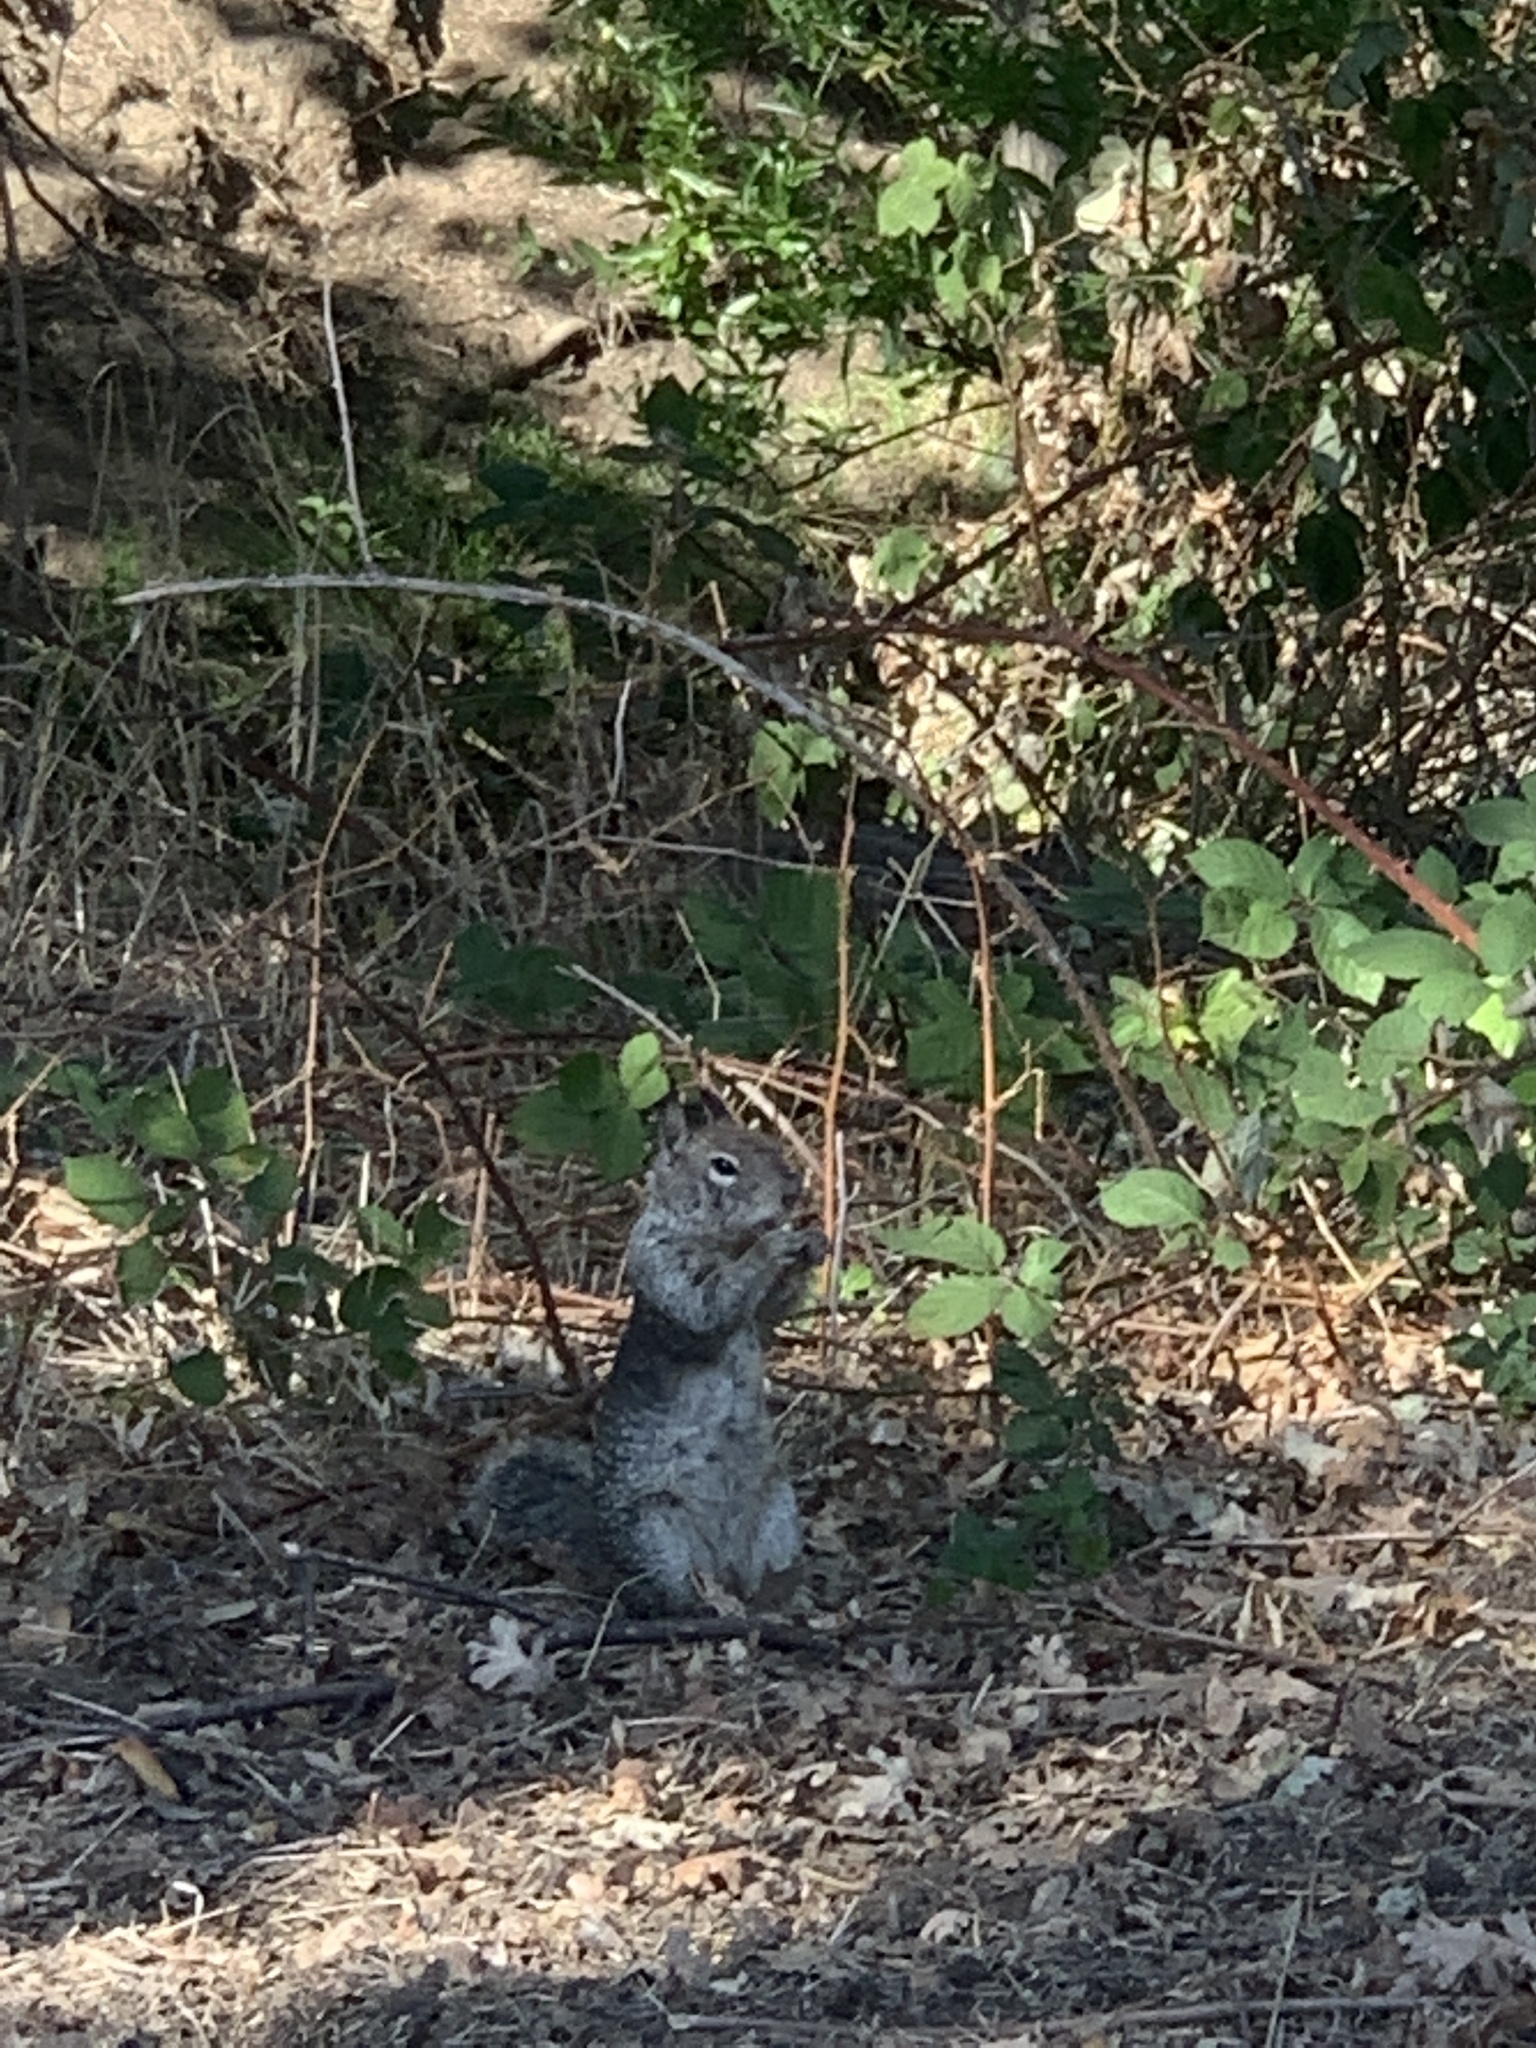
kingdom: Animalia
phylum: Chordata
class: Mammalia
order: Rodentia
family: Sciuridae
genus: Otospermophilus
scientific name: Otospermophilus beecheyi
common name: California ground squirrel
